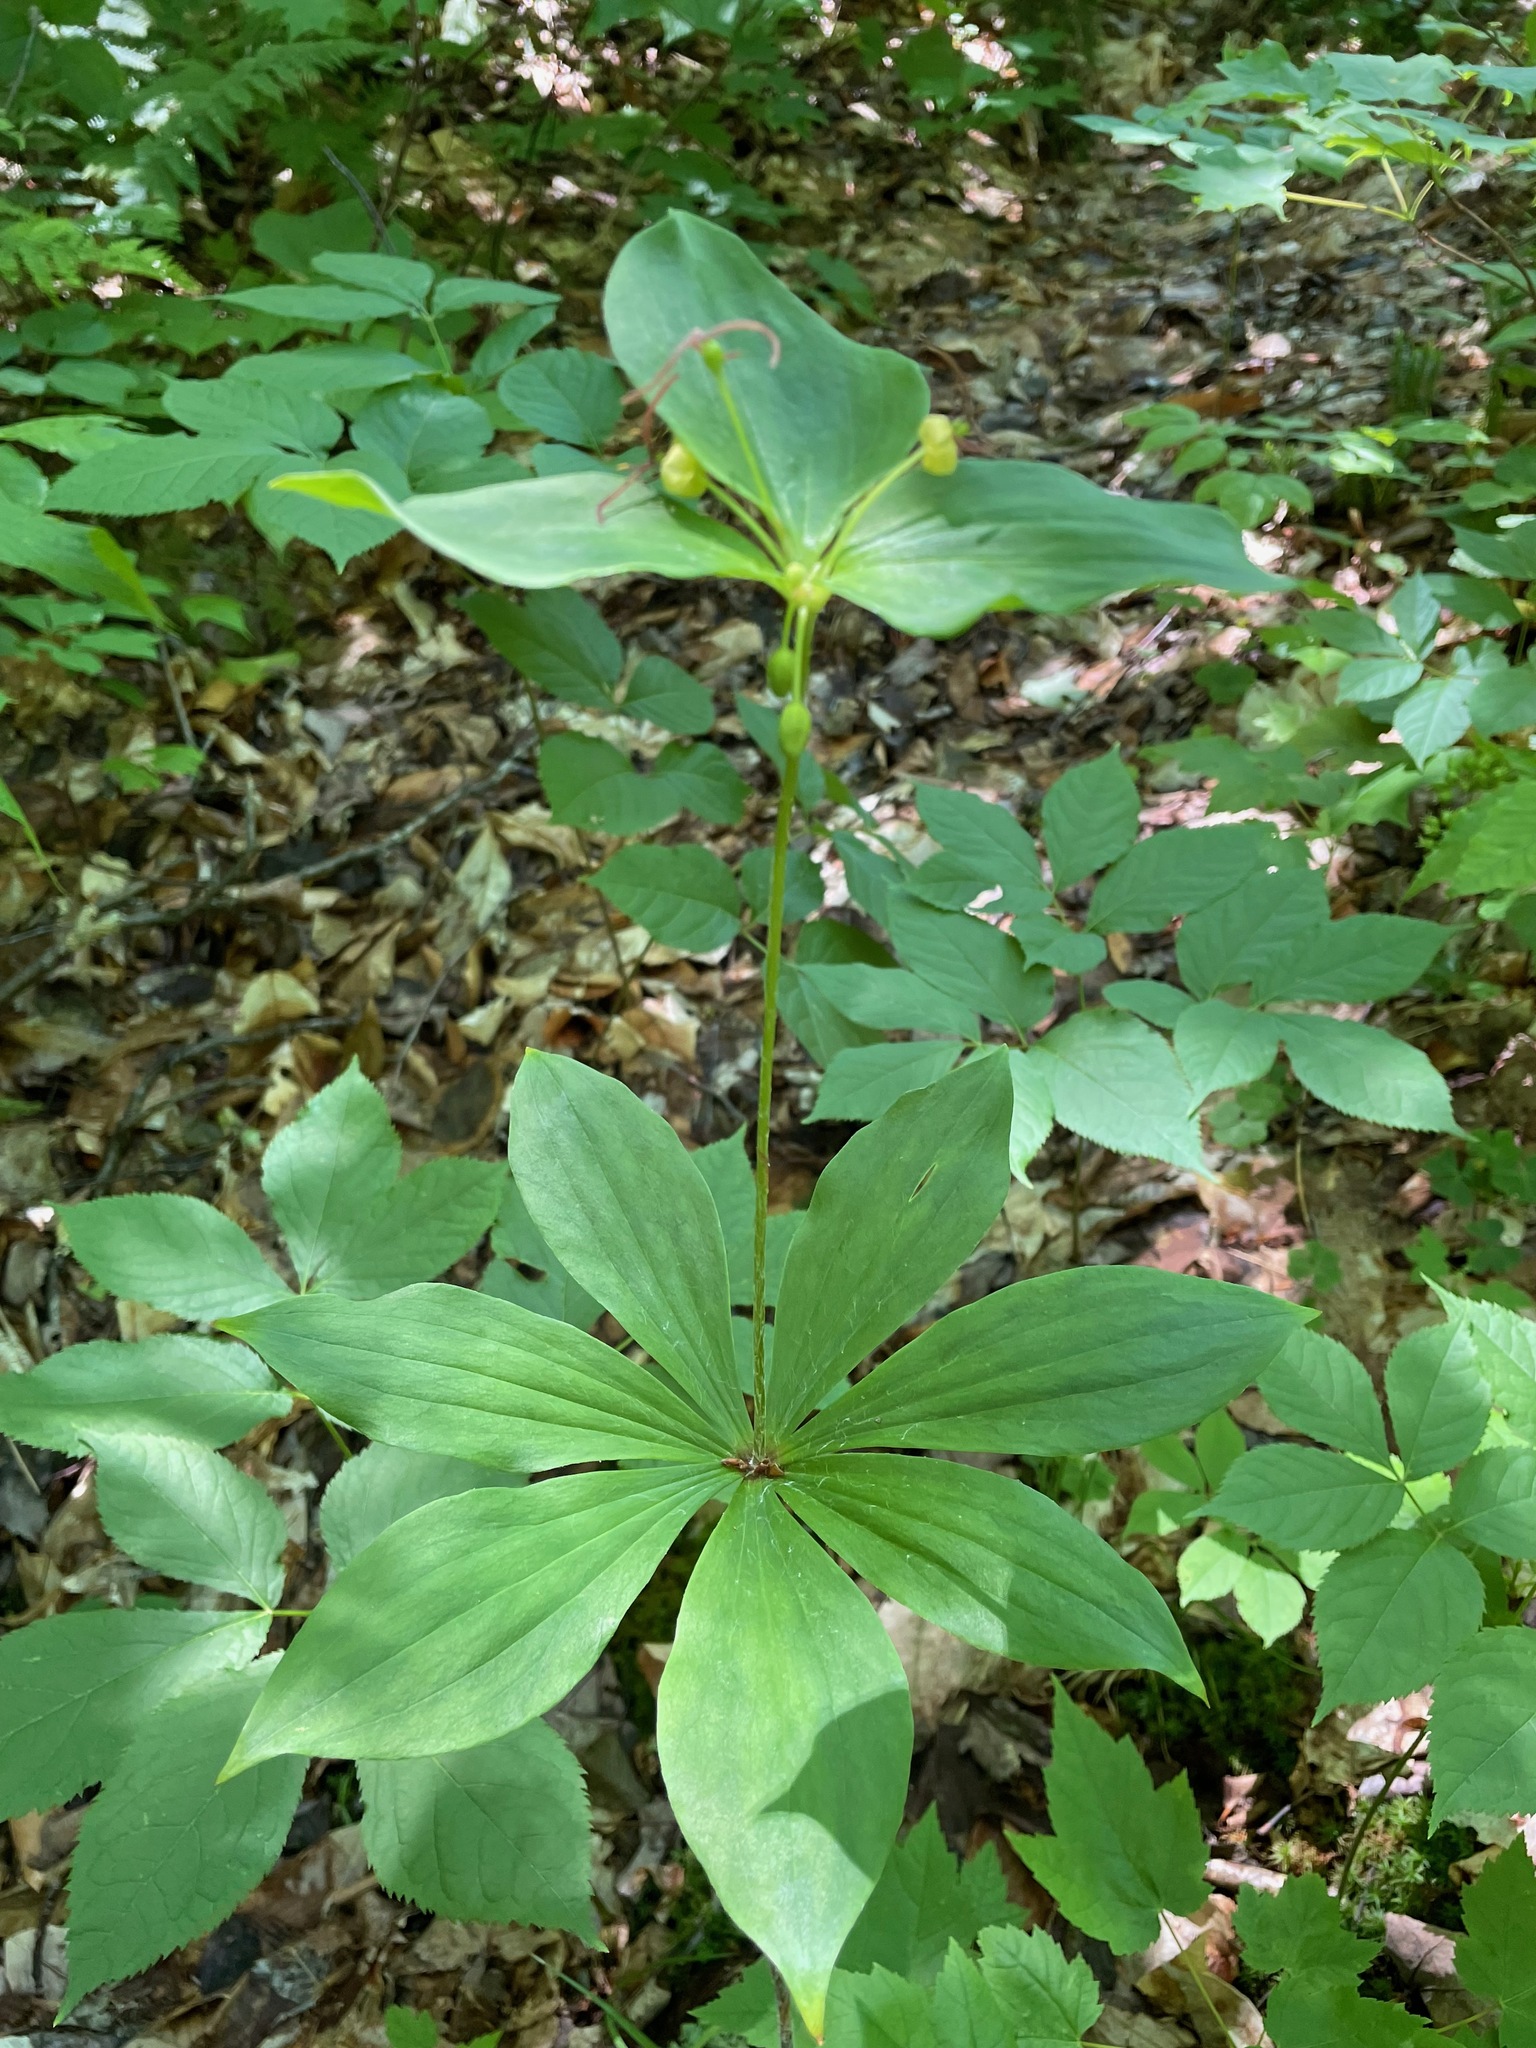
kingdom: Plantae
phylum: Tracheophyta
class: Liliopsida
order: Liliales
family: Liliaceae
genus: Medeola
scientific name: Medeola virginiana
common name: Indian cucumber-root
